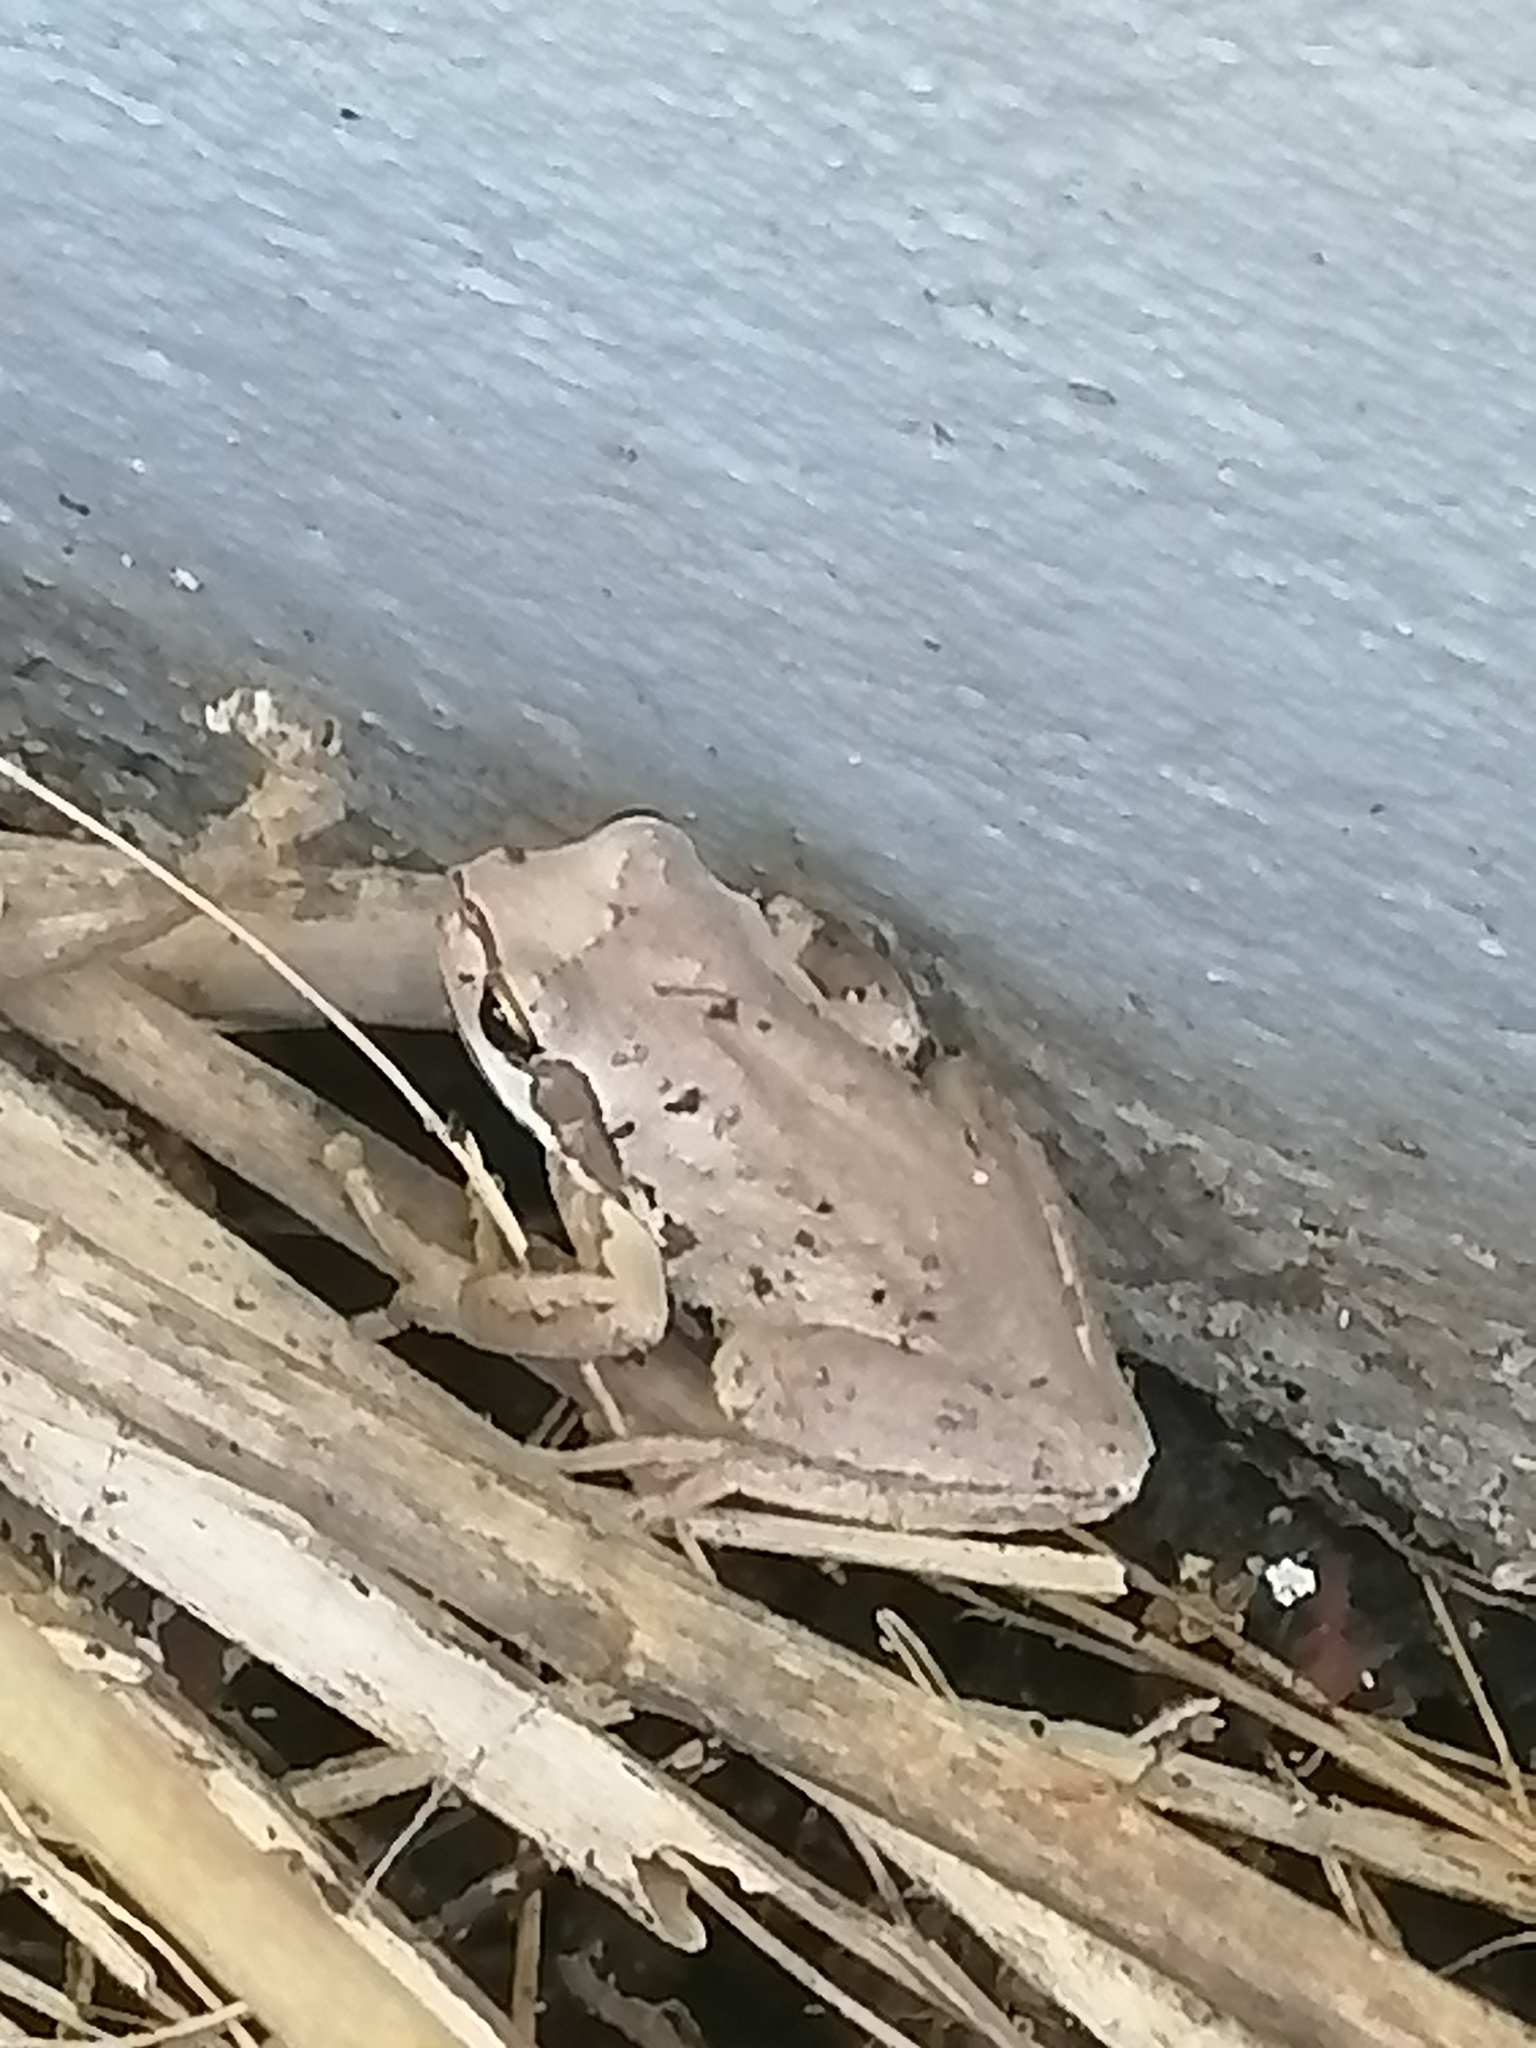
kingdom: Animalia
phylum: Chordata
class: Amphibia
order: Anura
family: Pelodryadidae
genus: Litoria
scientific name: Litoria ewingii
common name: Southern brown tree frog
